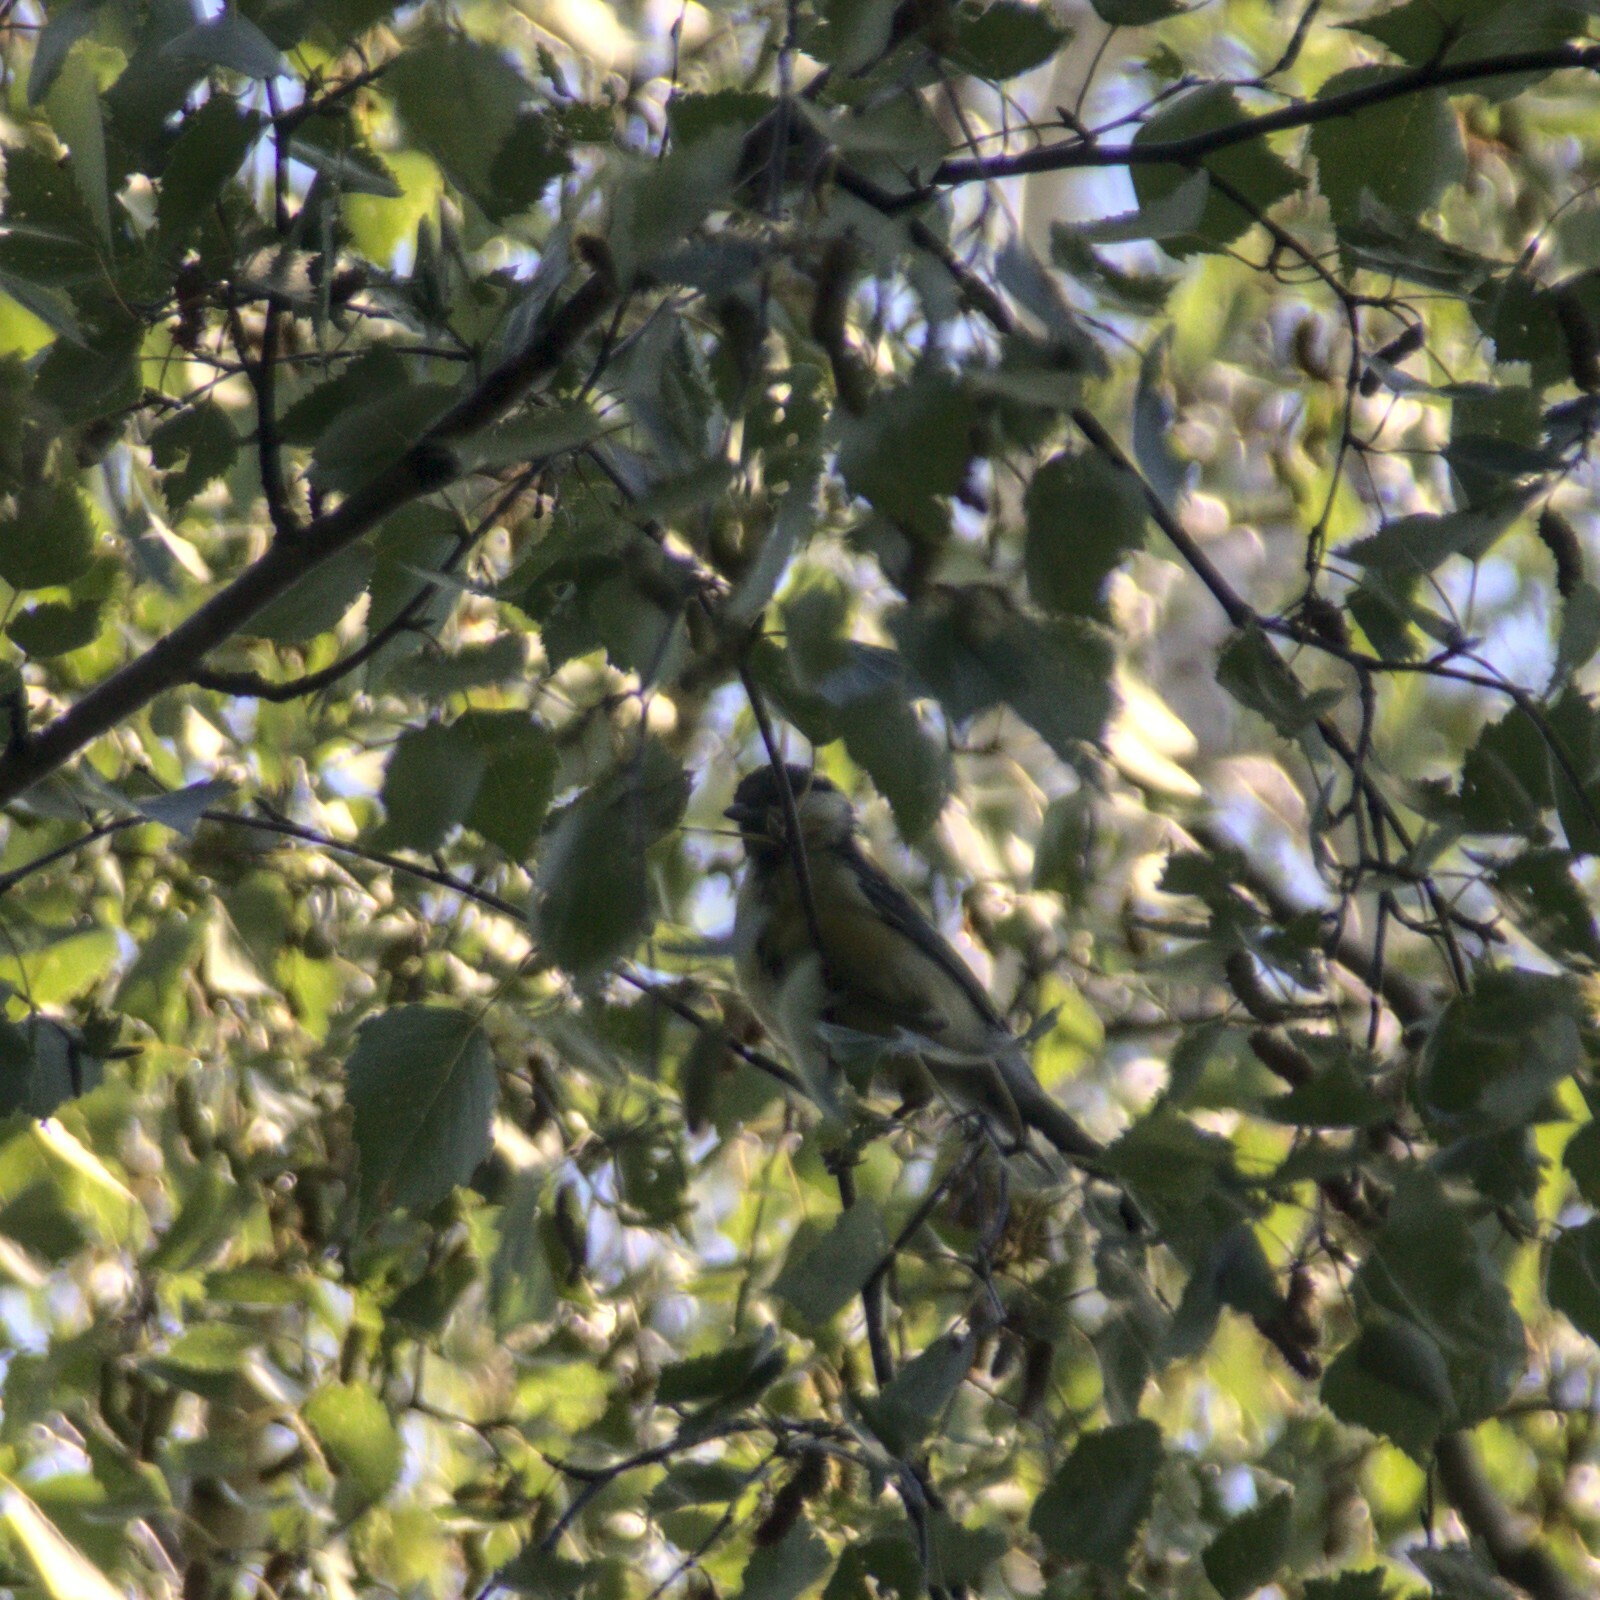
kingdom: Animalia
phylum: Chordata
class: Aves
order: Passeriformes
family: Paridae
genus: Parus
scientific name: Parus major
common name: Great tit
